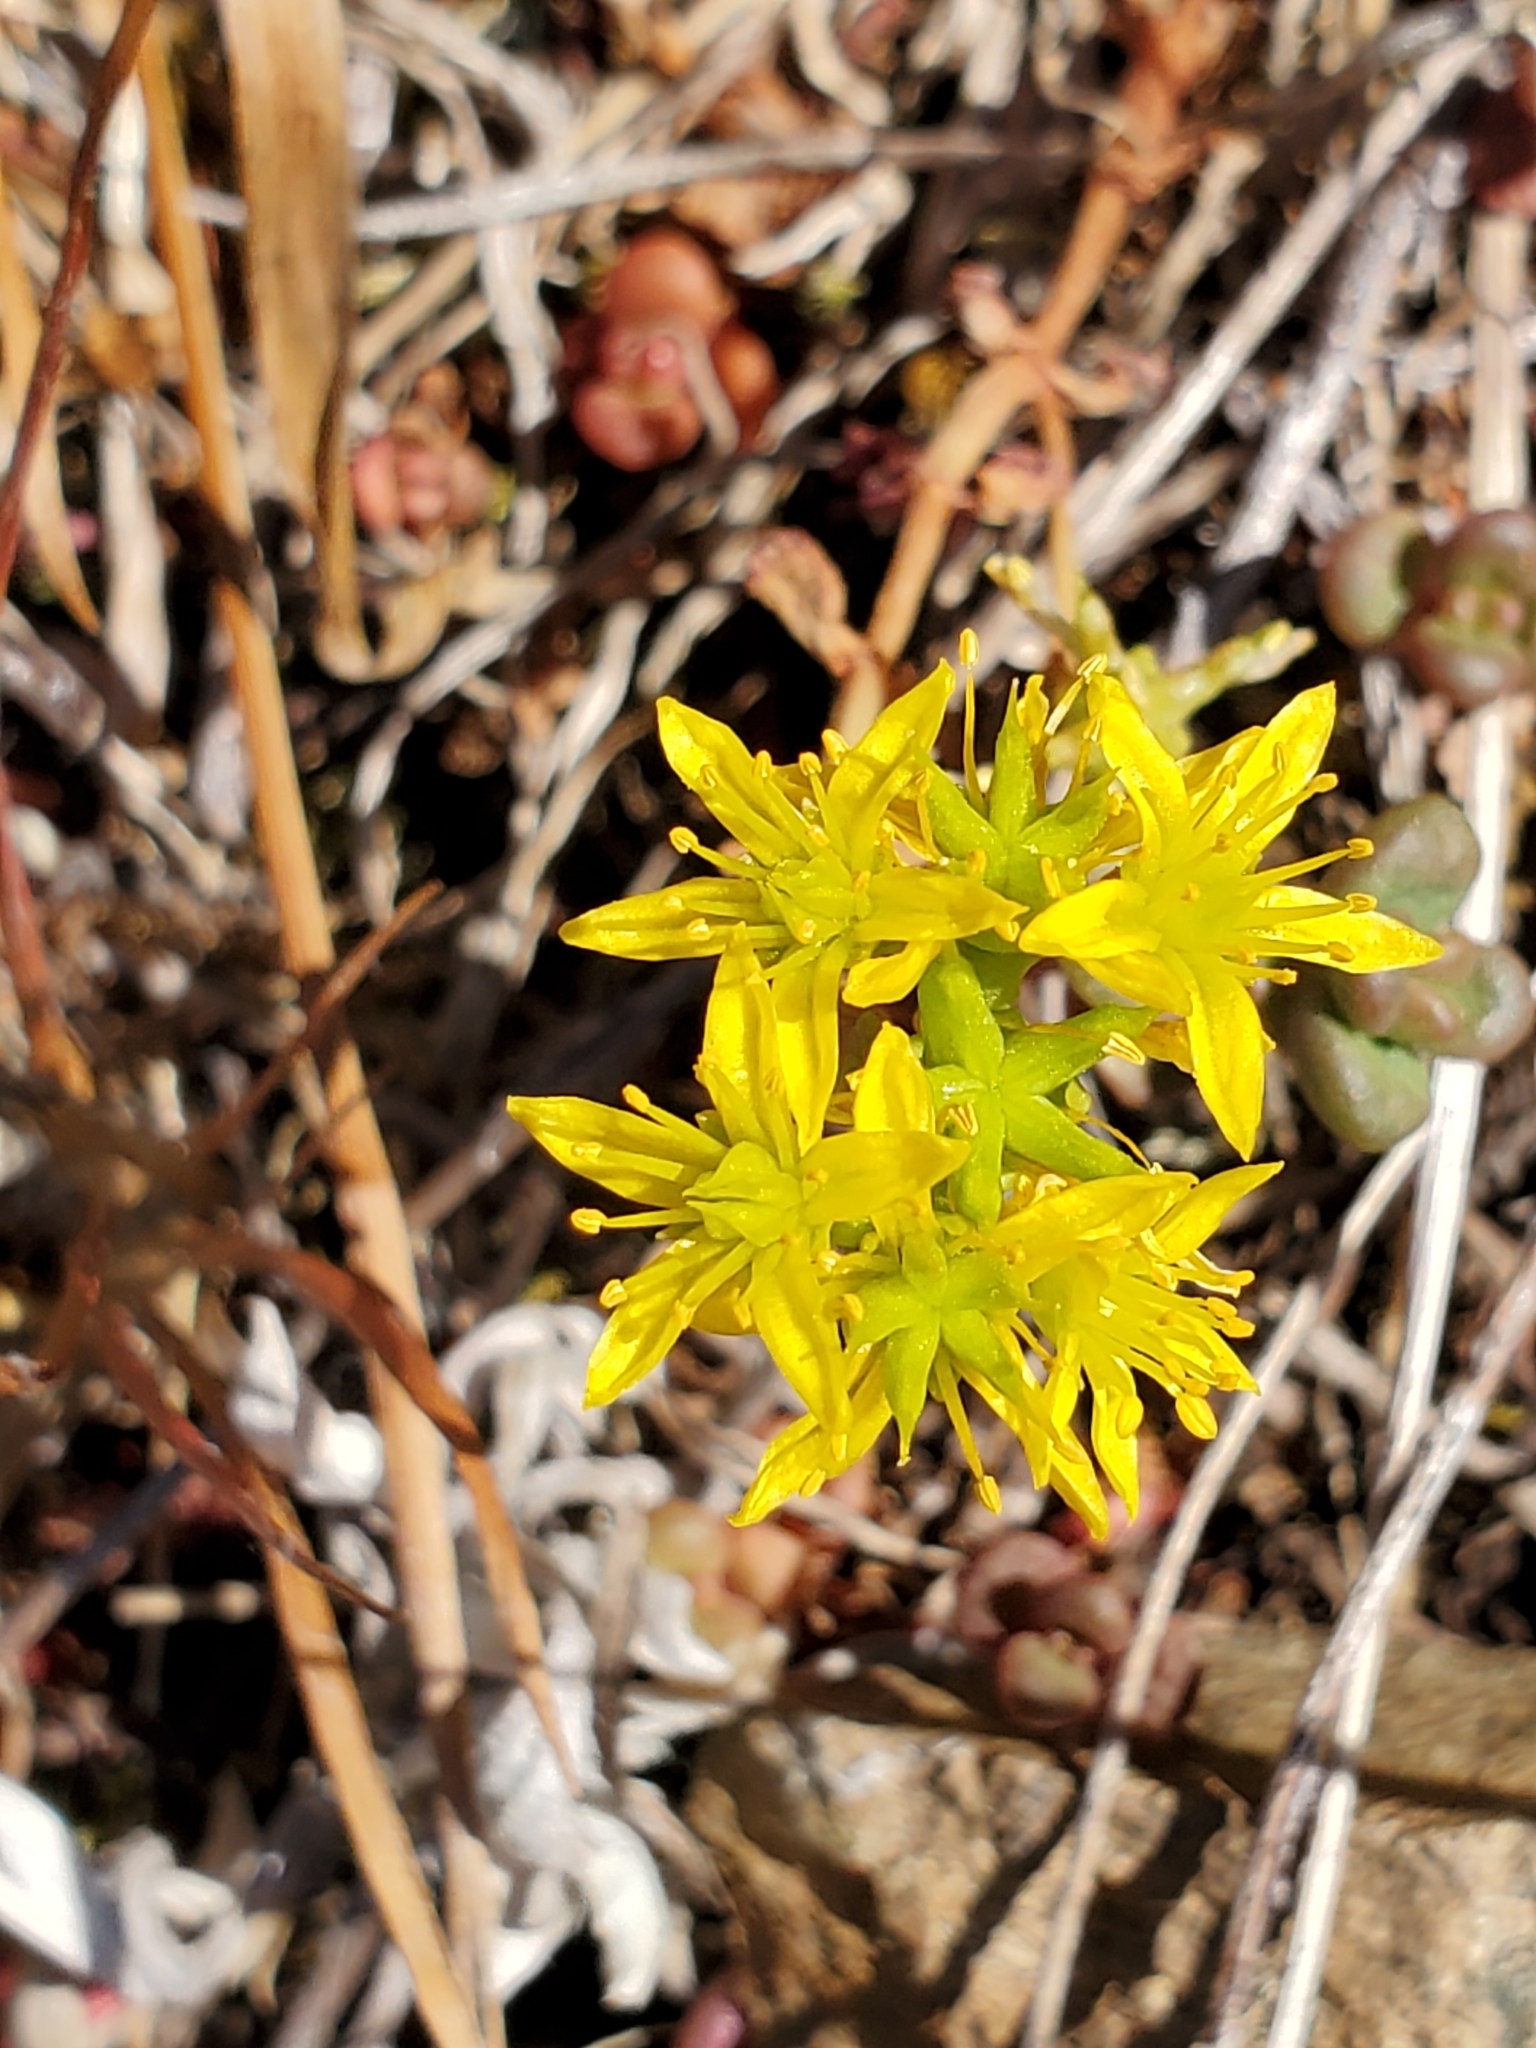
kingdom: Plantae
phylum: Tracheophyta
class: Magnoliopsida
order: Saxifragales
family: Crassulaceae
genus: Sedum
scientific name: Sedum divergens
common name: Cascade stonecrop
